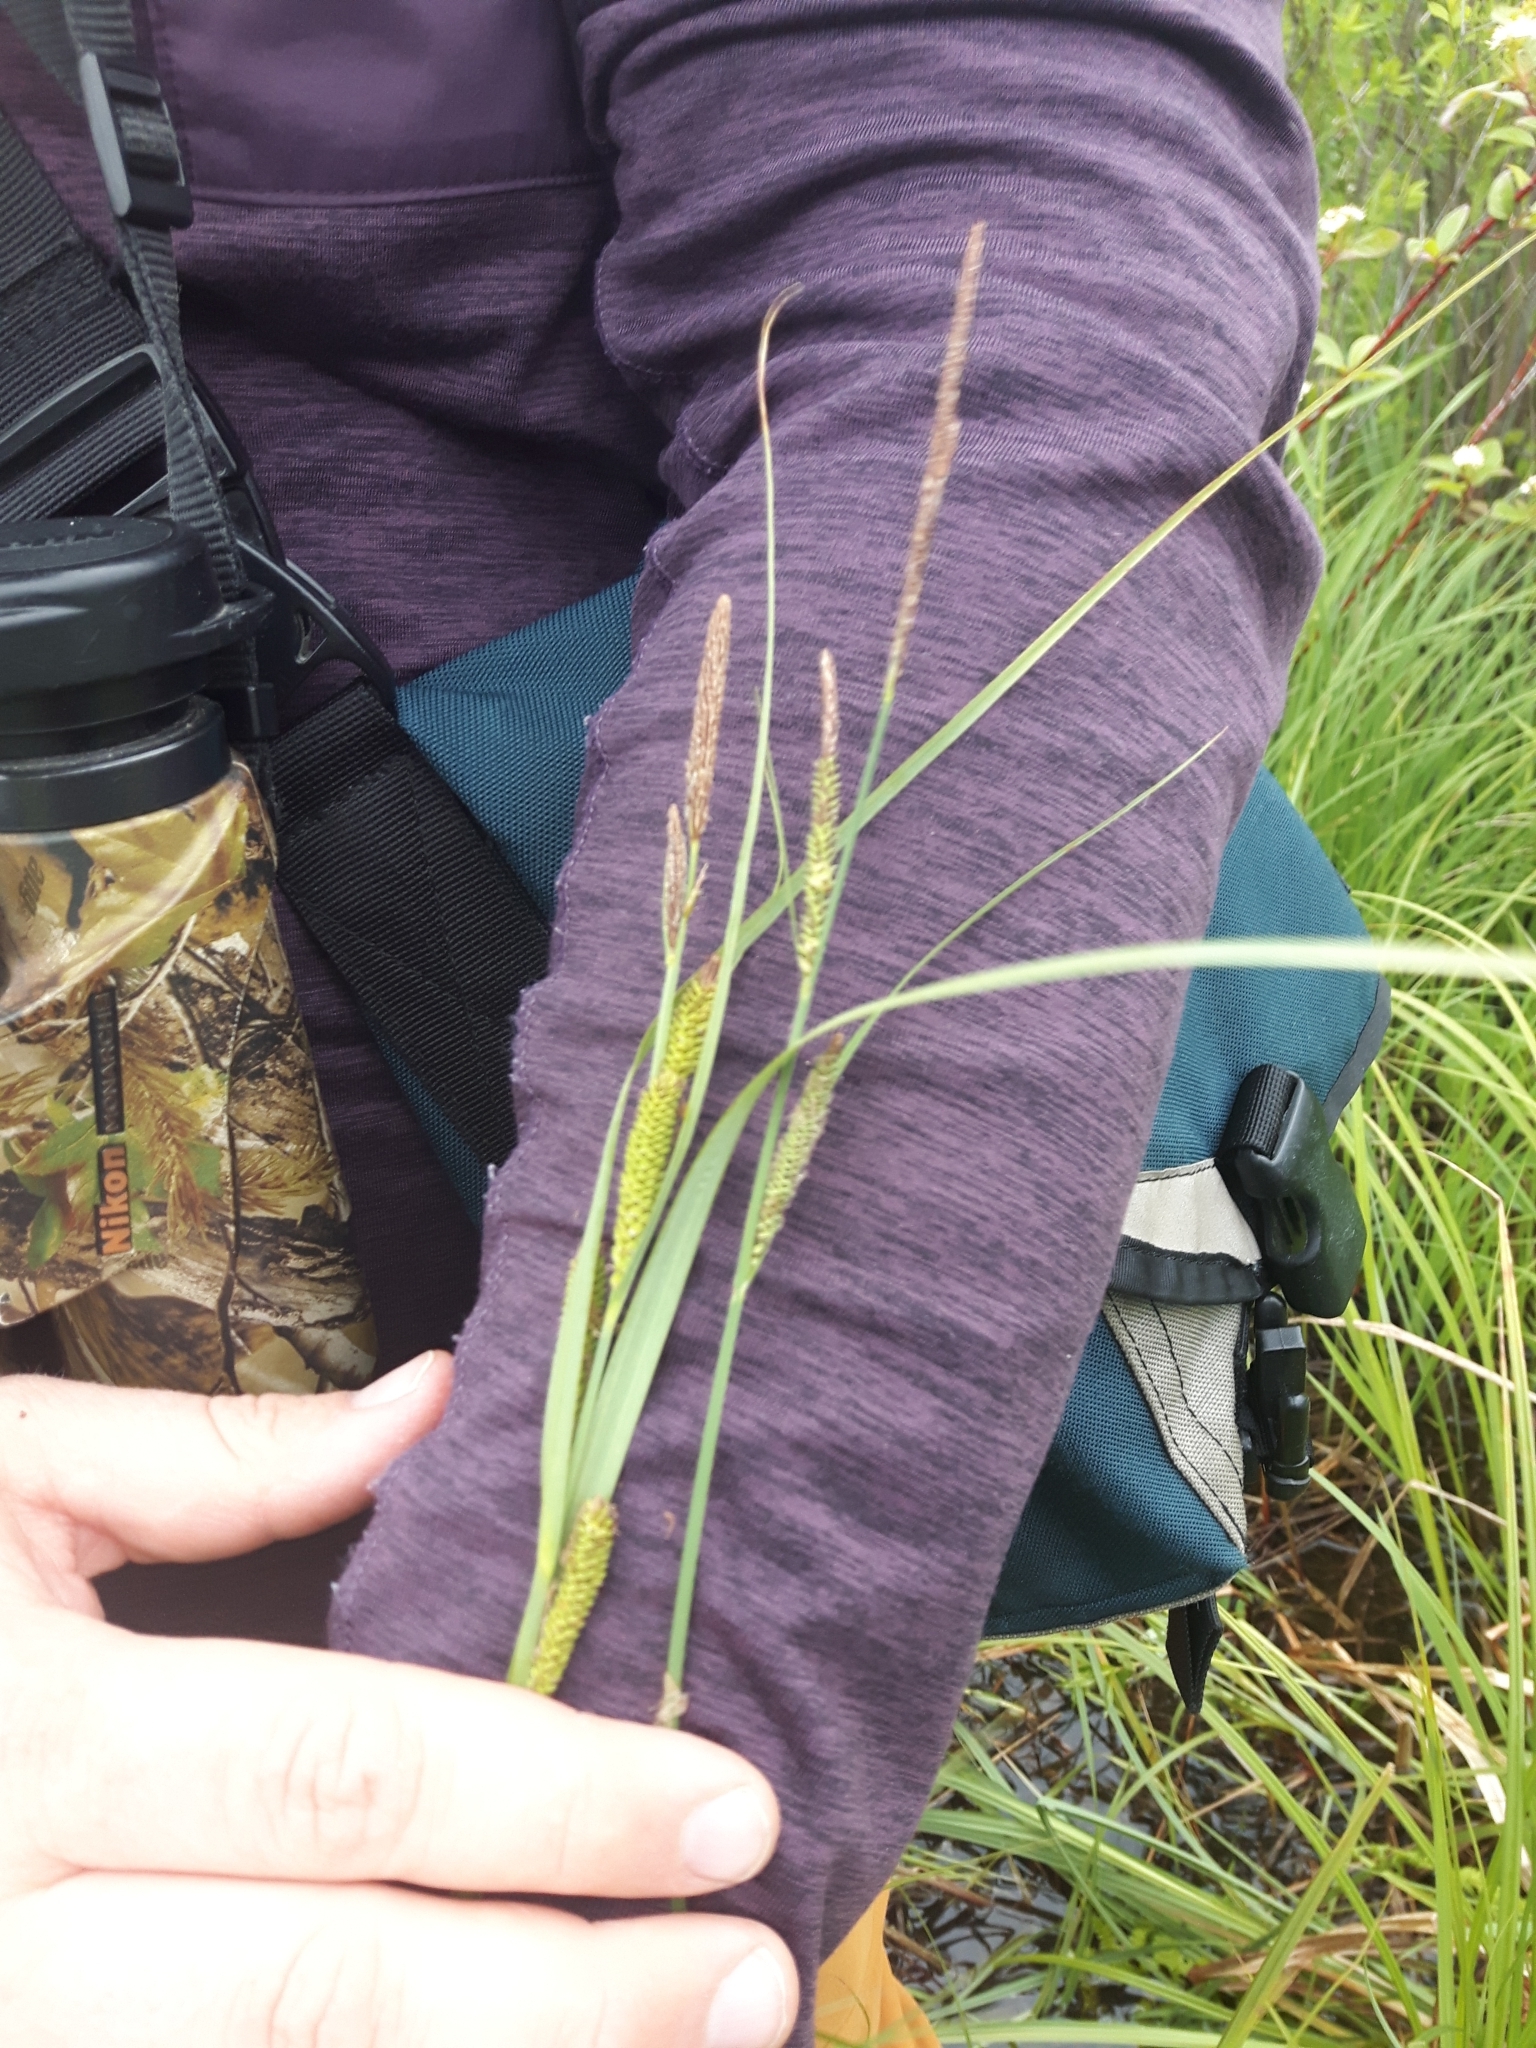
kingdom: Plantae
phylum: Tracheophyta
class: Liliopsida
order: Poales
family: Cyperaceae
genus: Carex
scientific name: Carex aquatilis
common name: Water sedge
